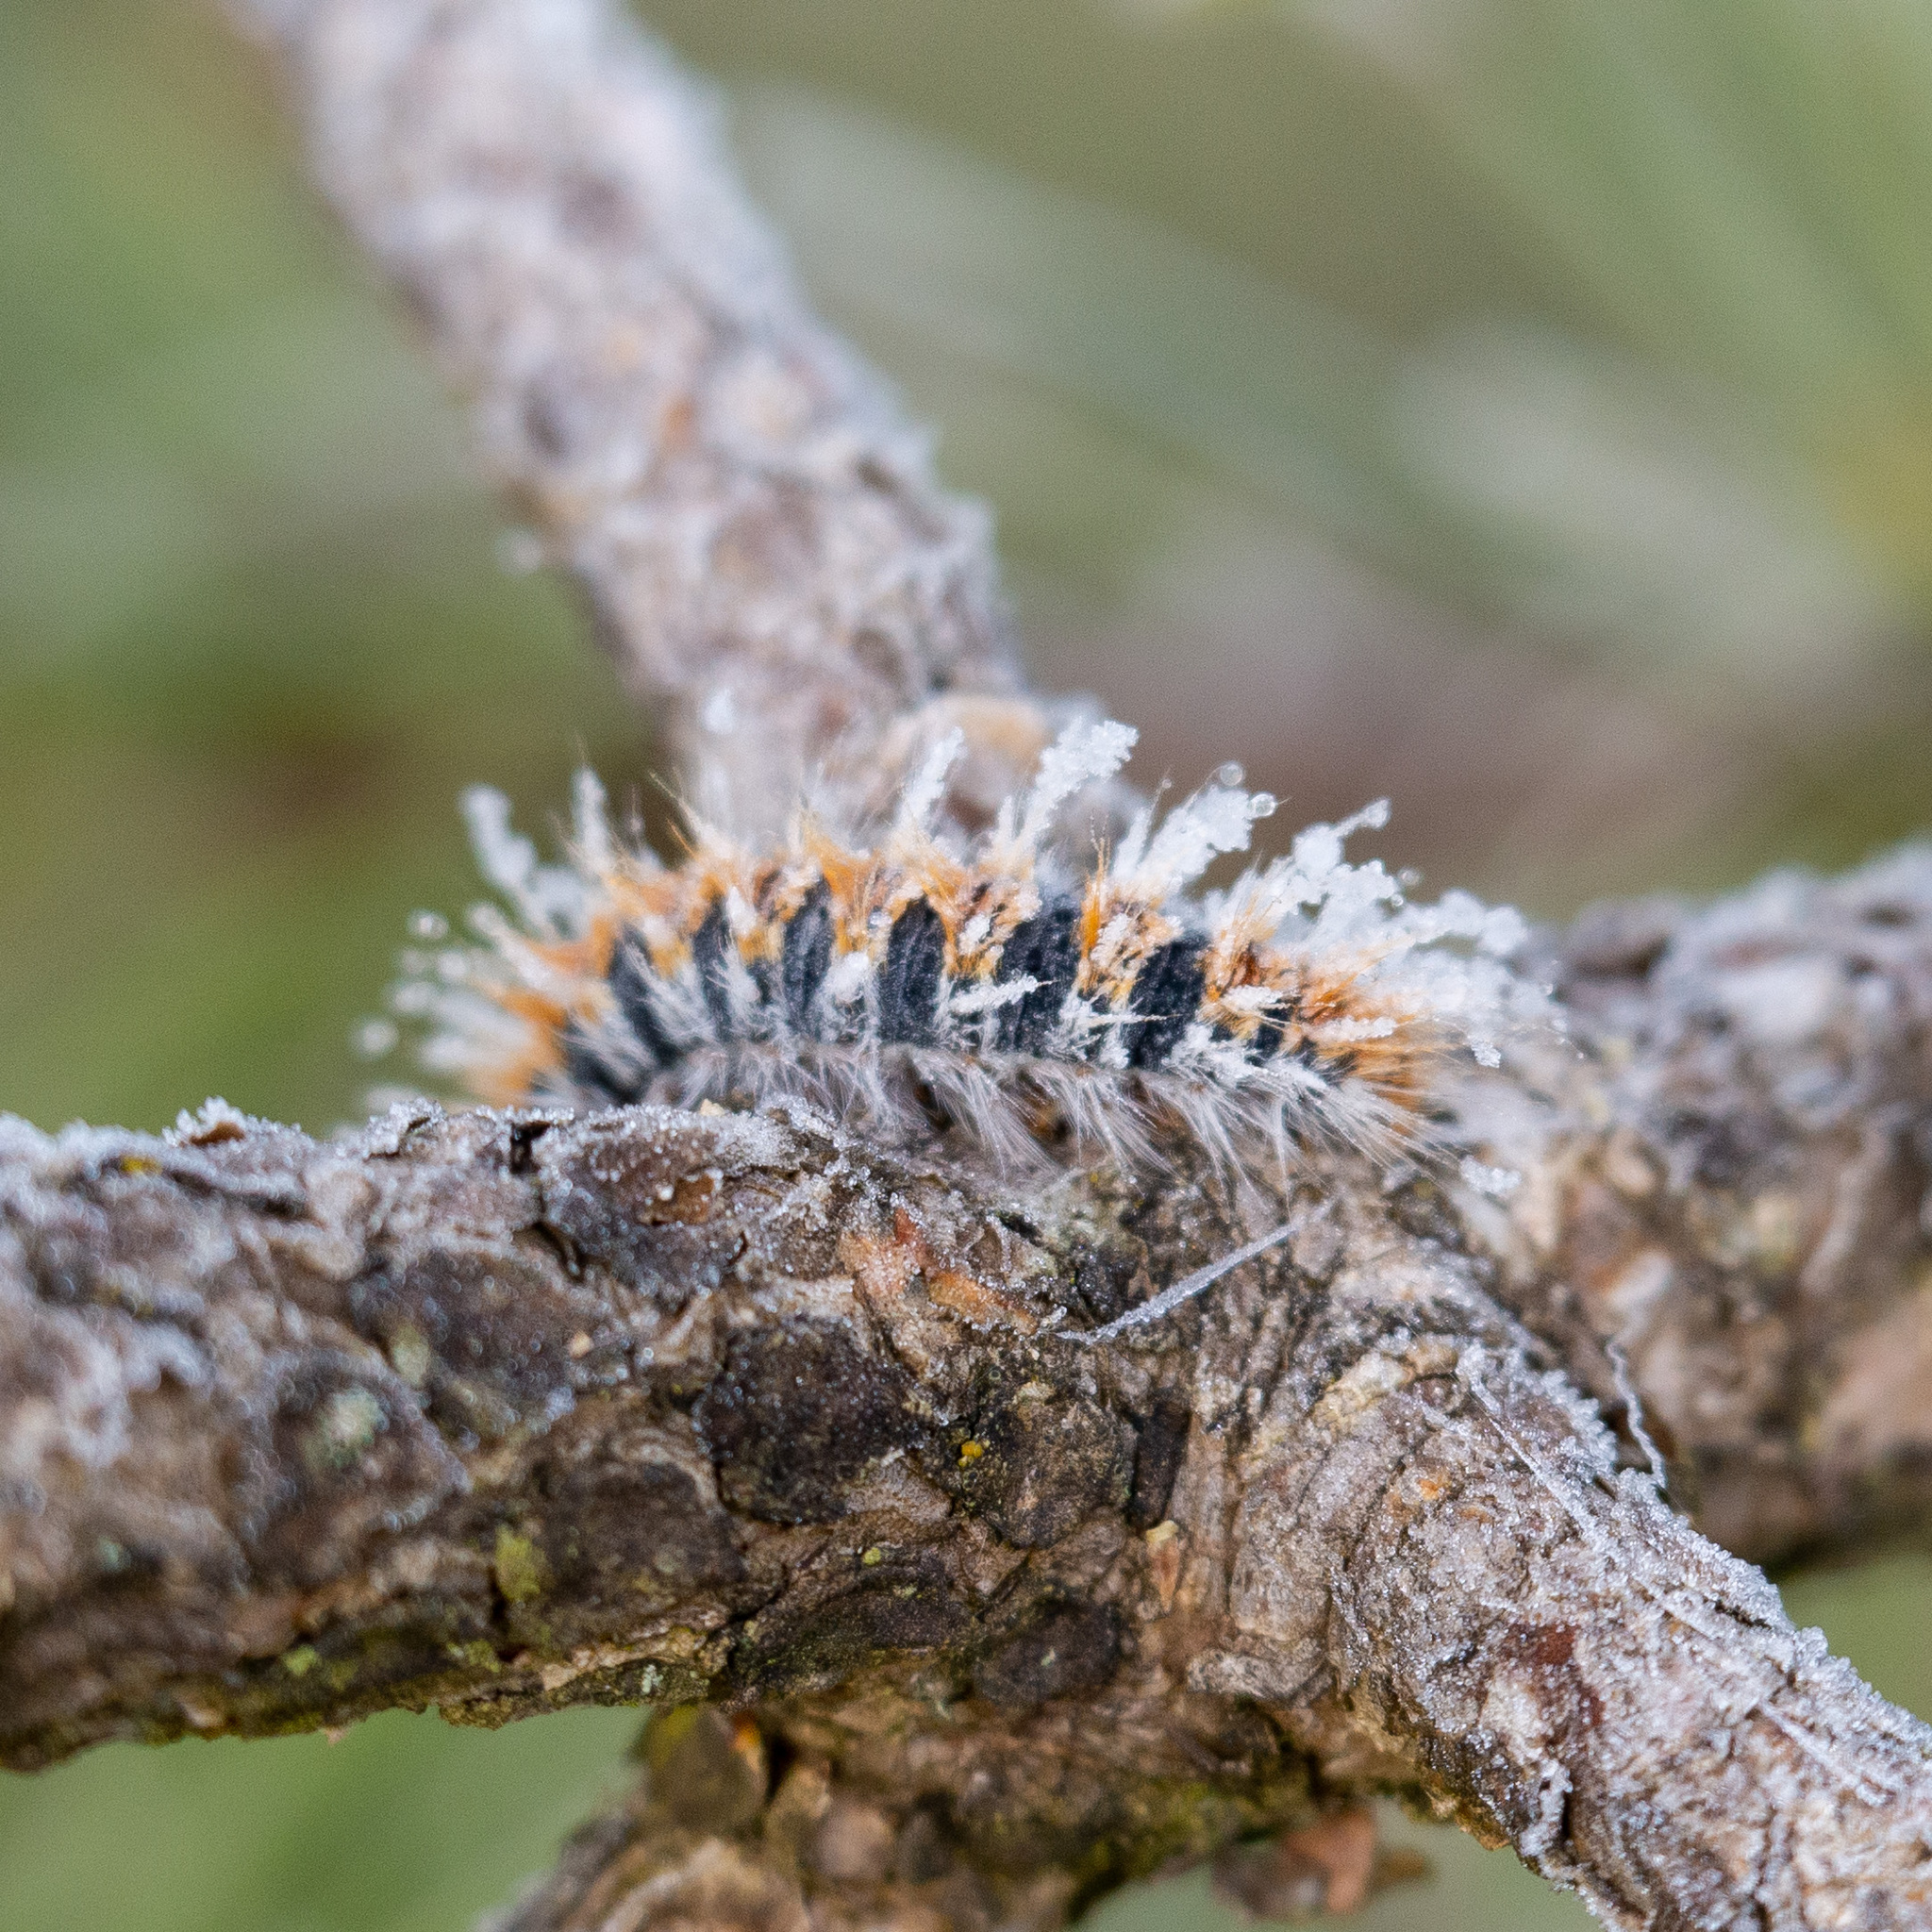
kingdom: Animalia
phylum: Arthropoda
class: Insecta
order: Lepidoptera
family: Notodontidae
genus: Thaumetopoea
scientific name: Thaumetopoea pityocampa
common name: Pine processionary
